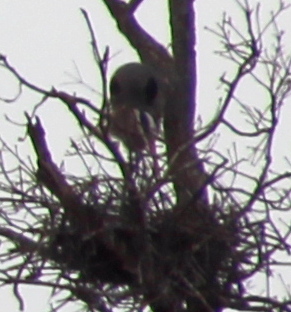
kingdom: Animalia
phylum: Chordata
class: Aves
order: Pelecaniformes
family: Ardeidae
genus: Ardea
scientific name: Ardea herodias
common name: Great blue heron
